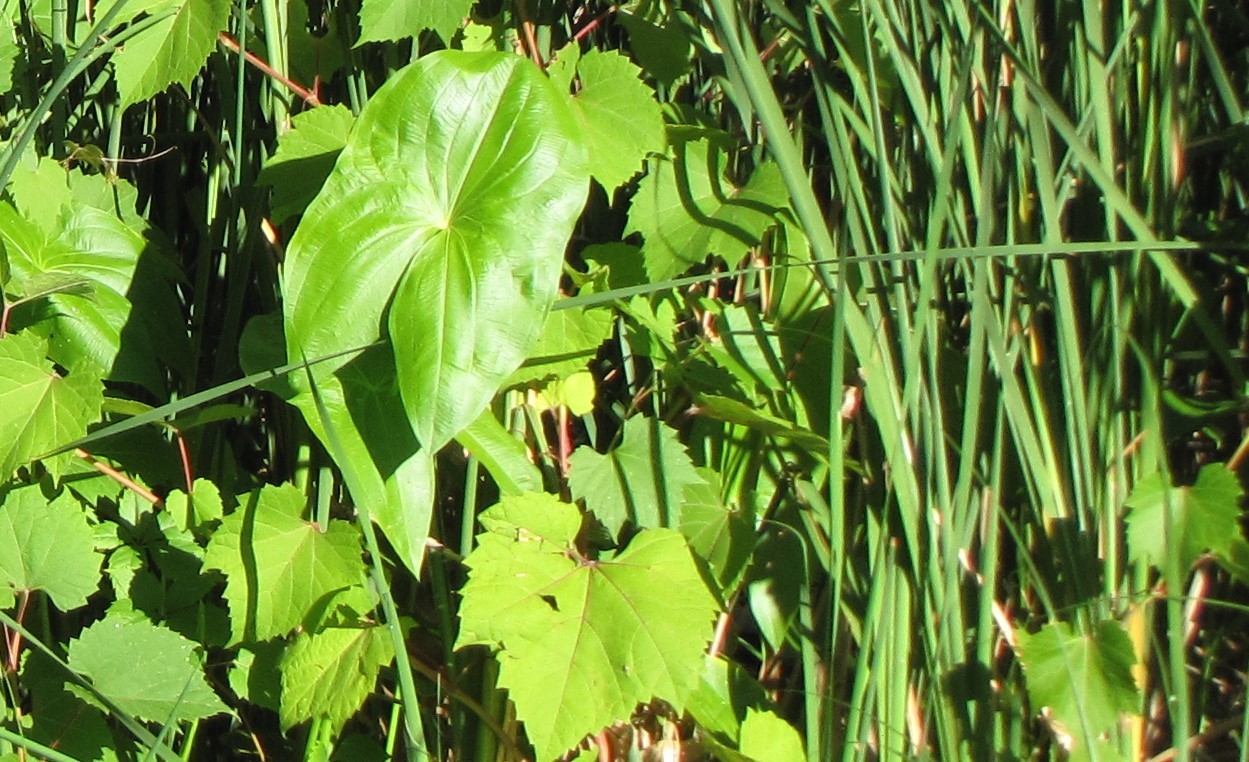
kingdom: Plantae
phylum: Tracheophyta
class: Liliopsida
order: Alismatales
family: Alismataceae
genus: Sagittaria
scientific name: Sagittaria latifolia
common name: Duck-potato
